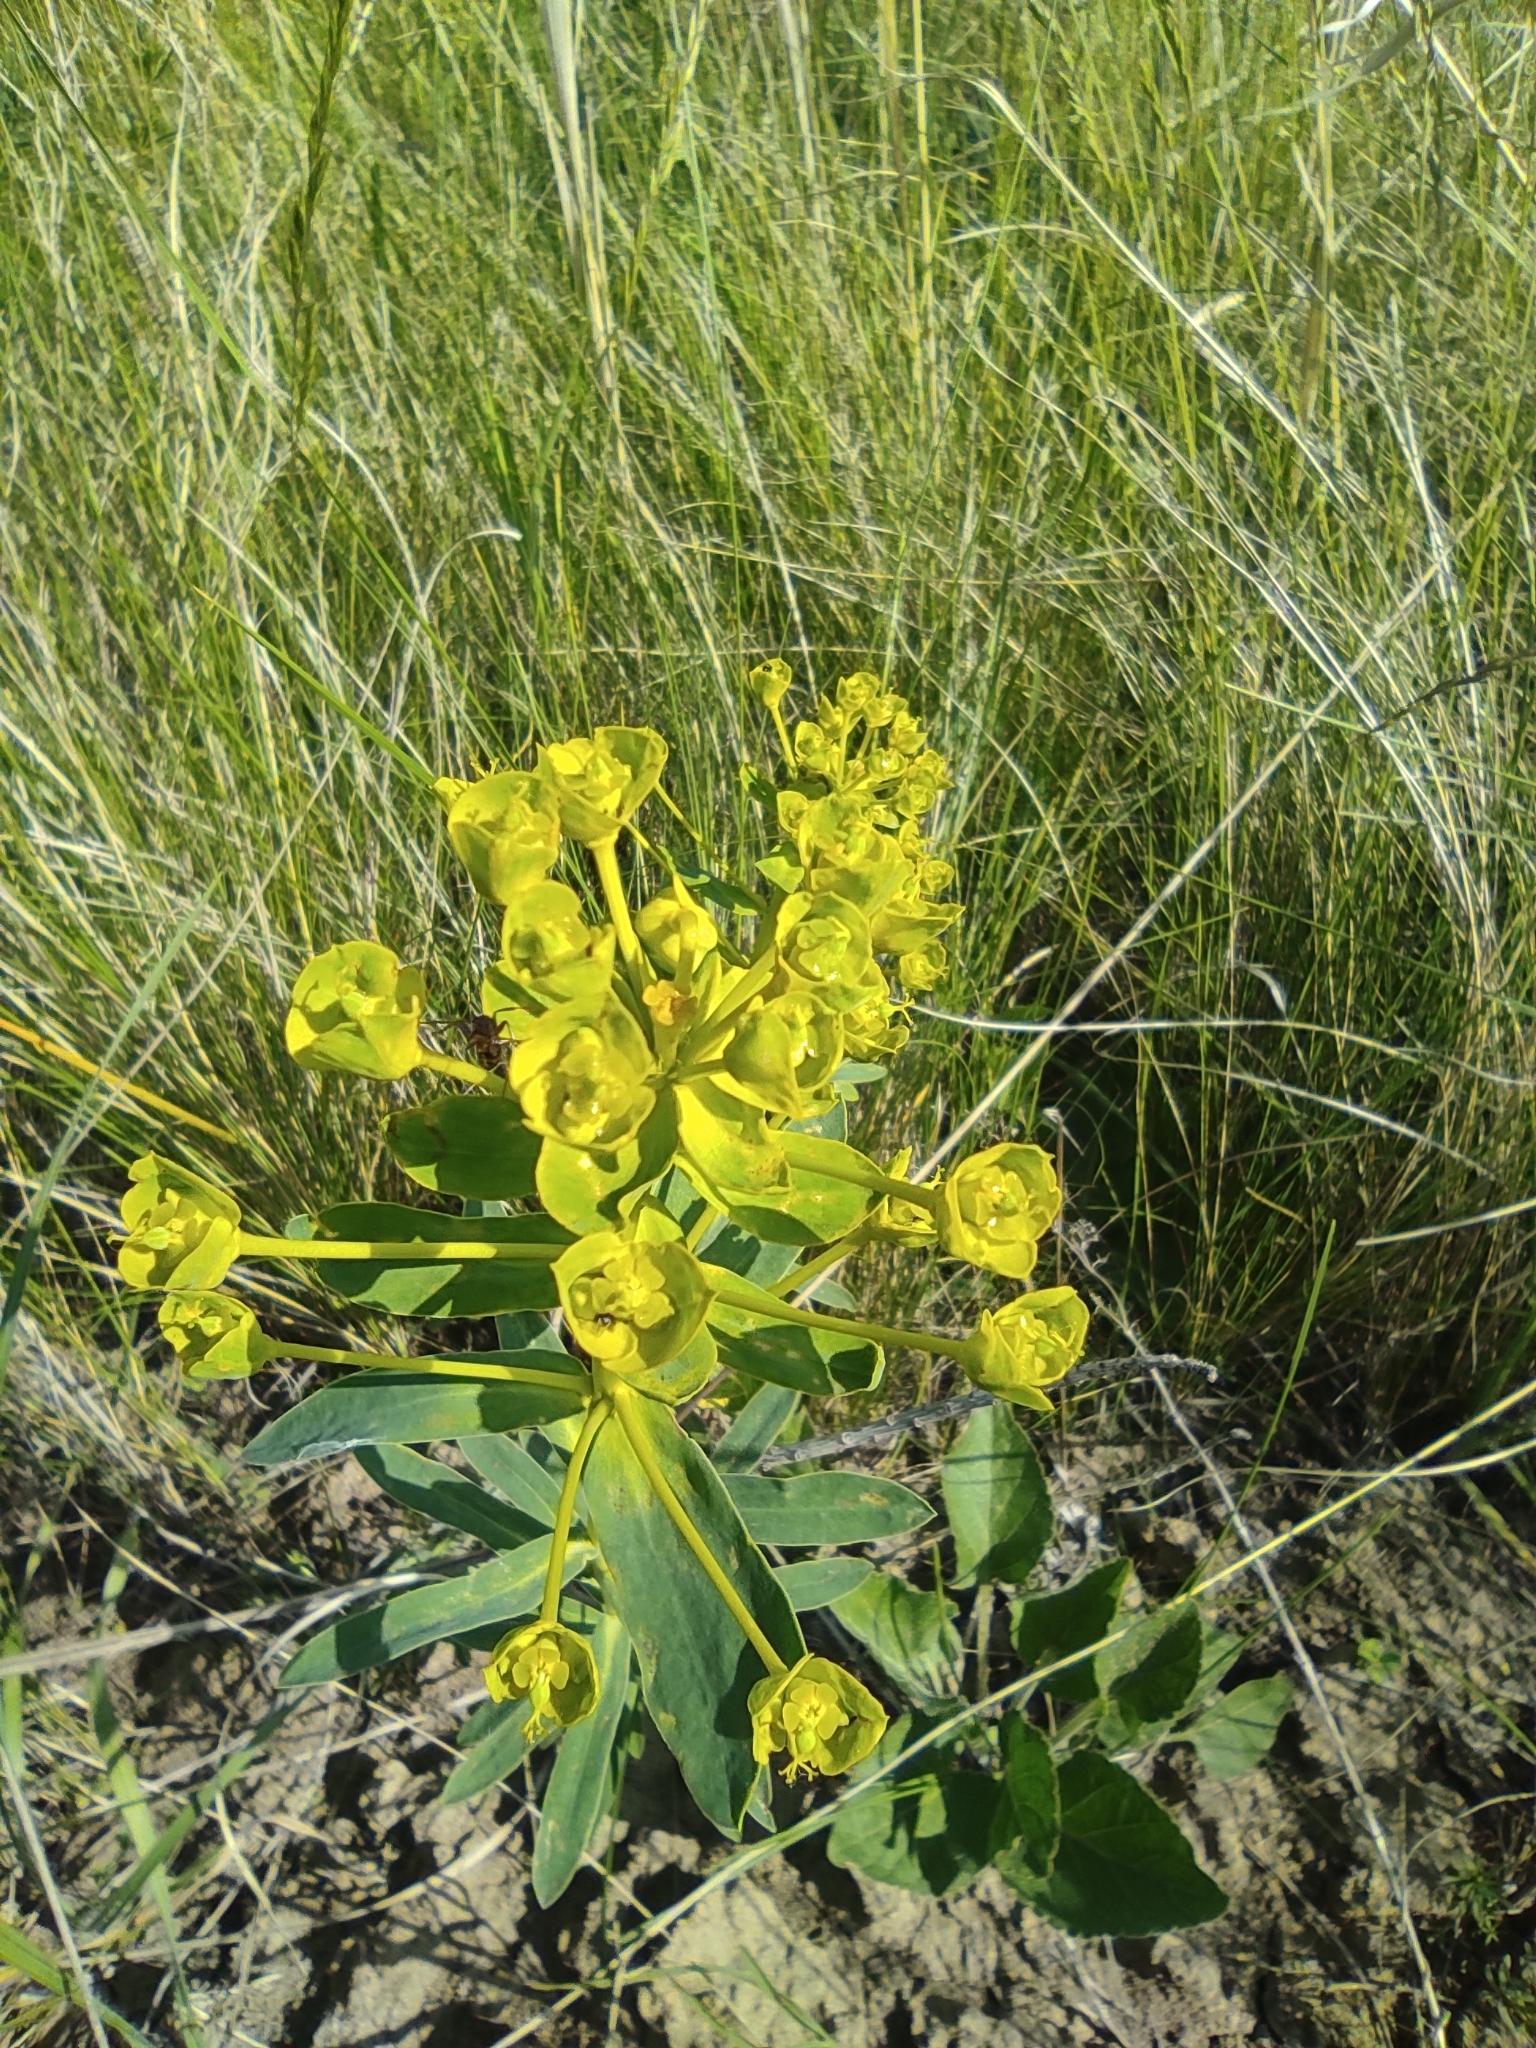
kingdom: Plantae
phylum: Tracheophyta
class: Magnoliopsida
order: Malpighiales
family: Euphorbiaceae
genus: Euphorbia
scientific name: Euphorbia virgata
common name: Leafy spurge
